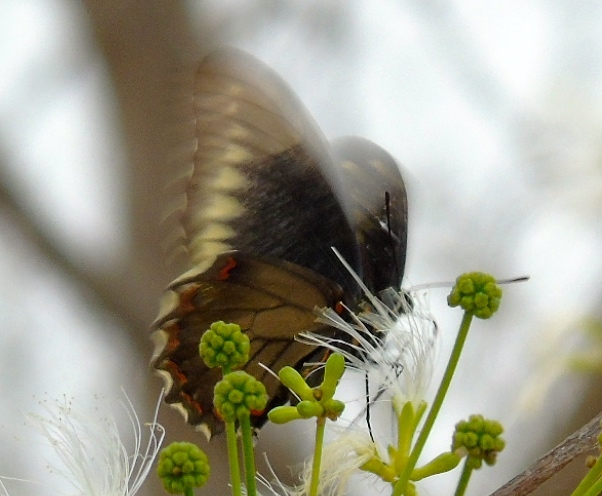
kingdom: Animalia
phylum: Arthropoda
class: Insecta
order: Lepidoptera
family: Papilionidae
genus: Battus
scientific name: Battus polydamas
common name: Polydamas swallowtail
